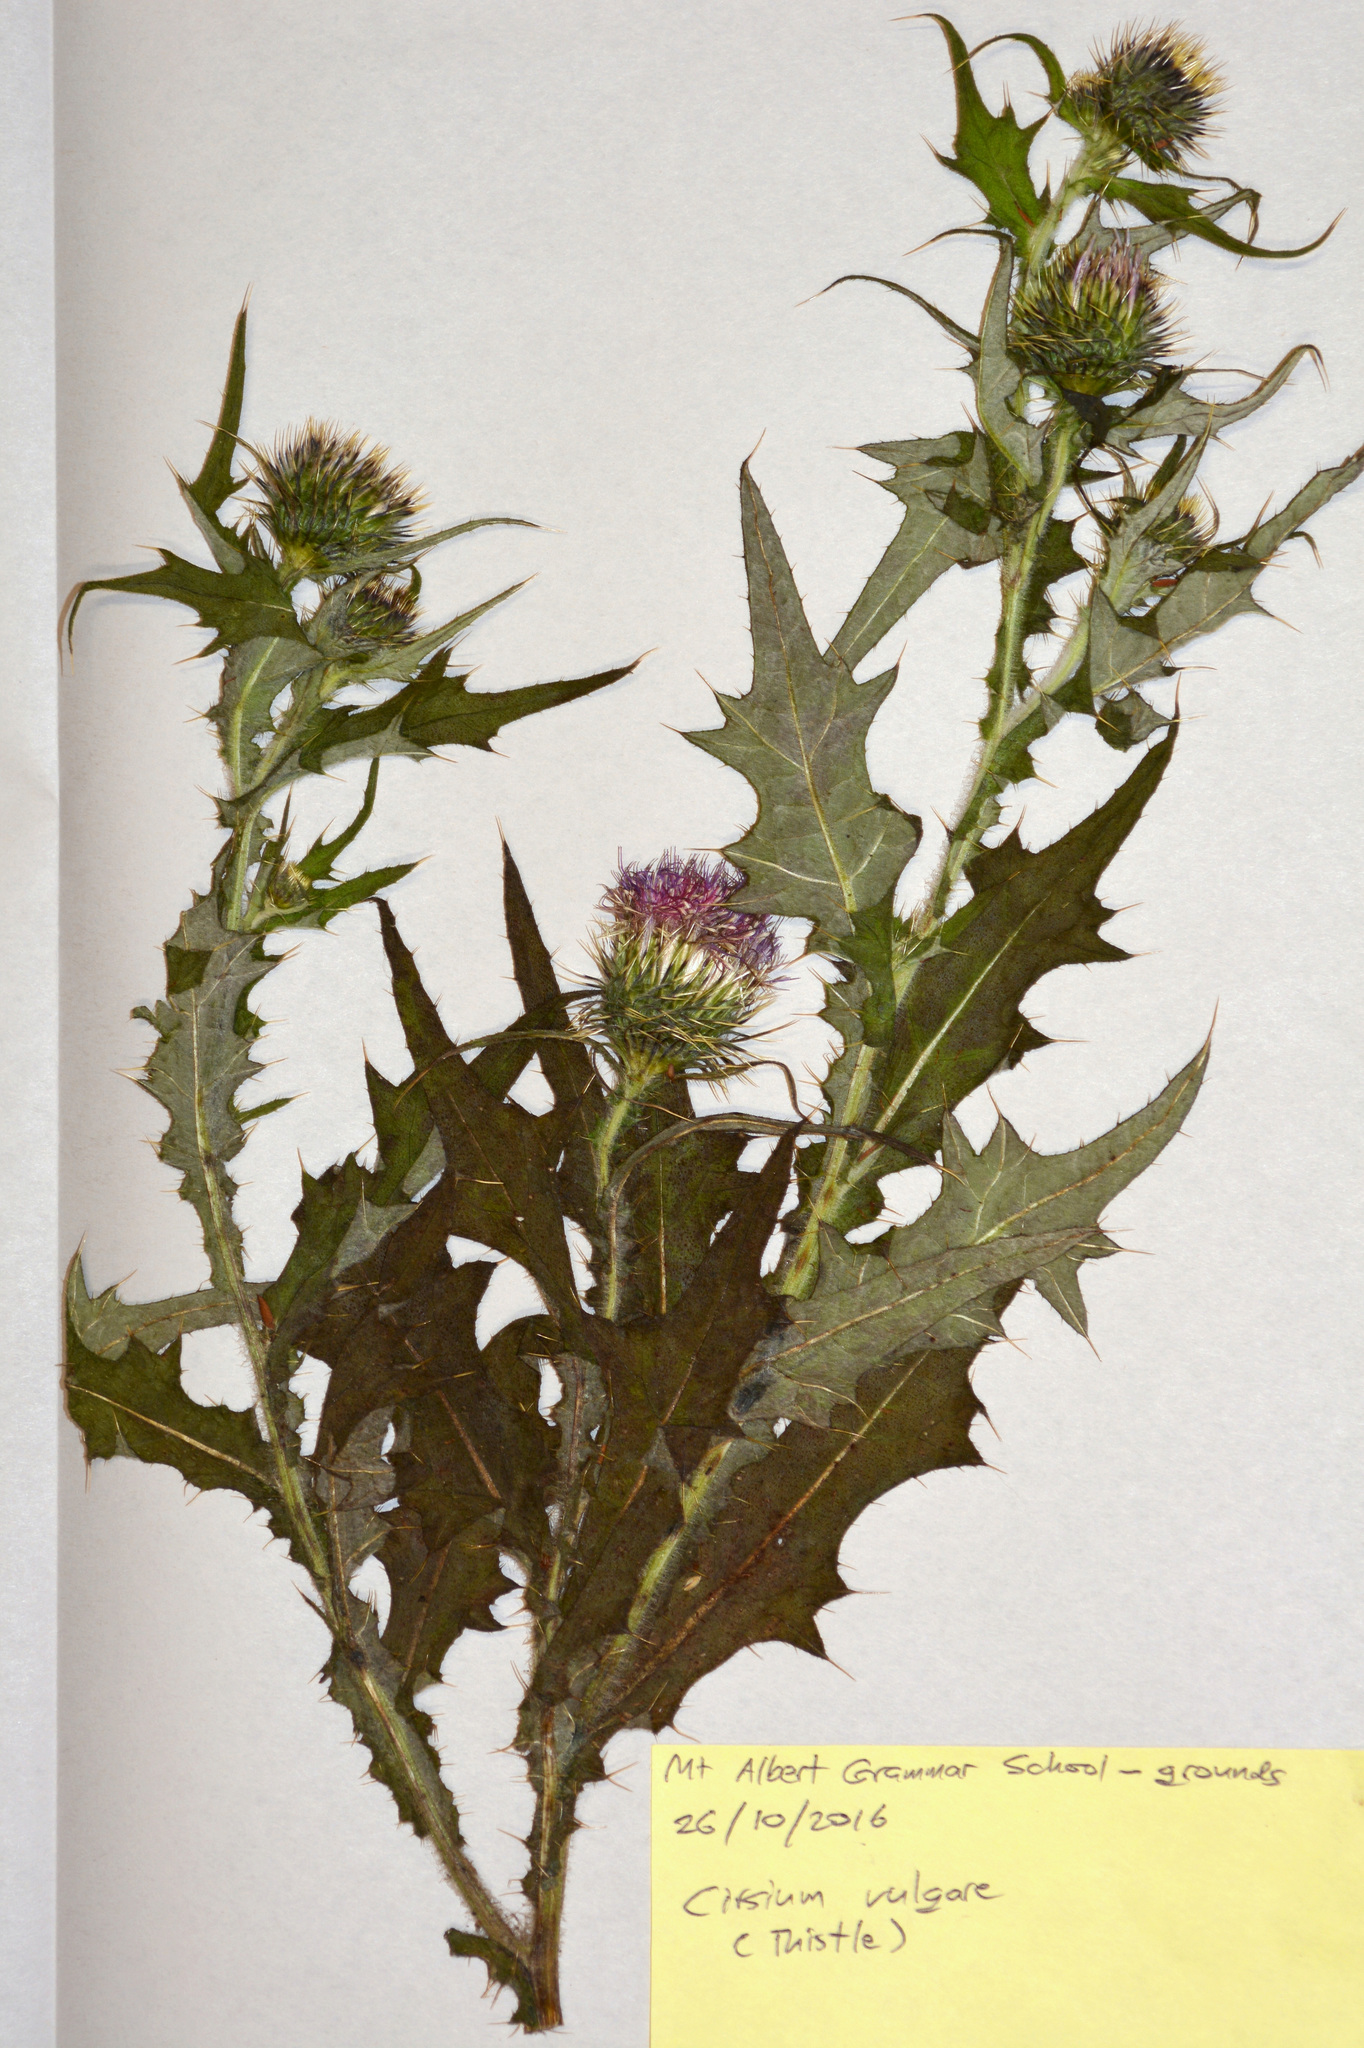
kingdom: Plantae
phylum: Tracheophyta
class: Magnoliopsida
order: Asterales
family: Asteraceae
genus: Cirsium
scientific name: Cirsium vulgare
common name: Bull thistle
